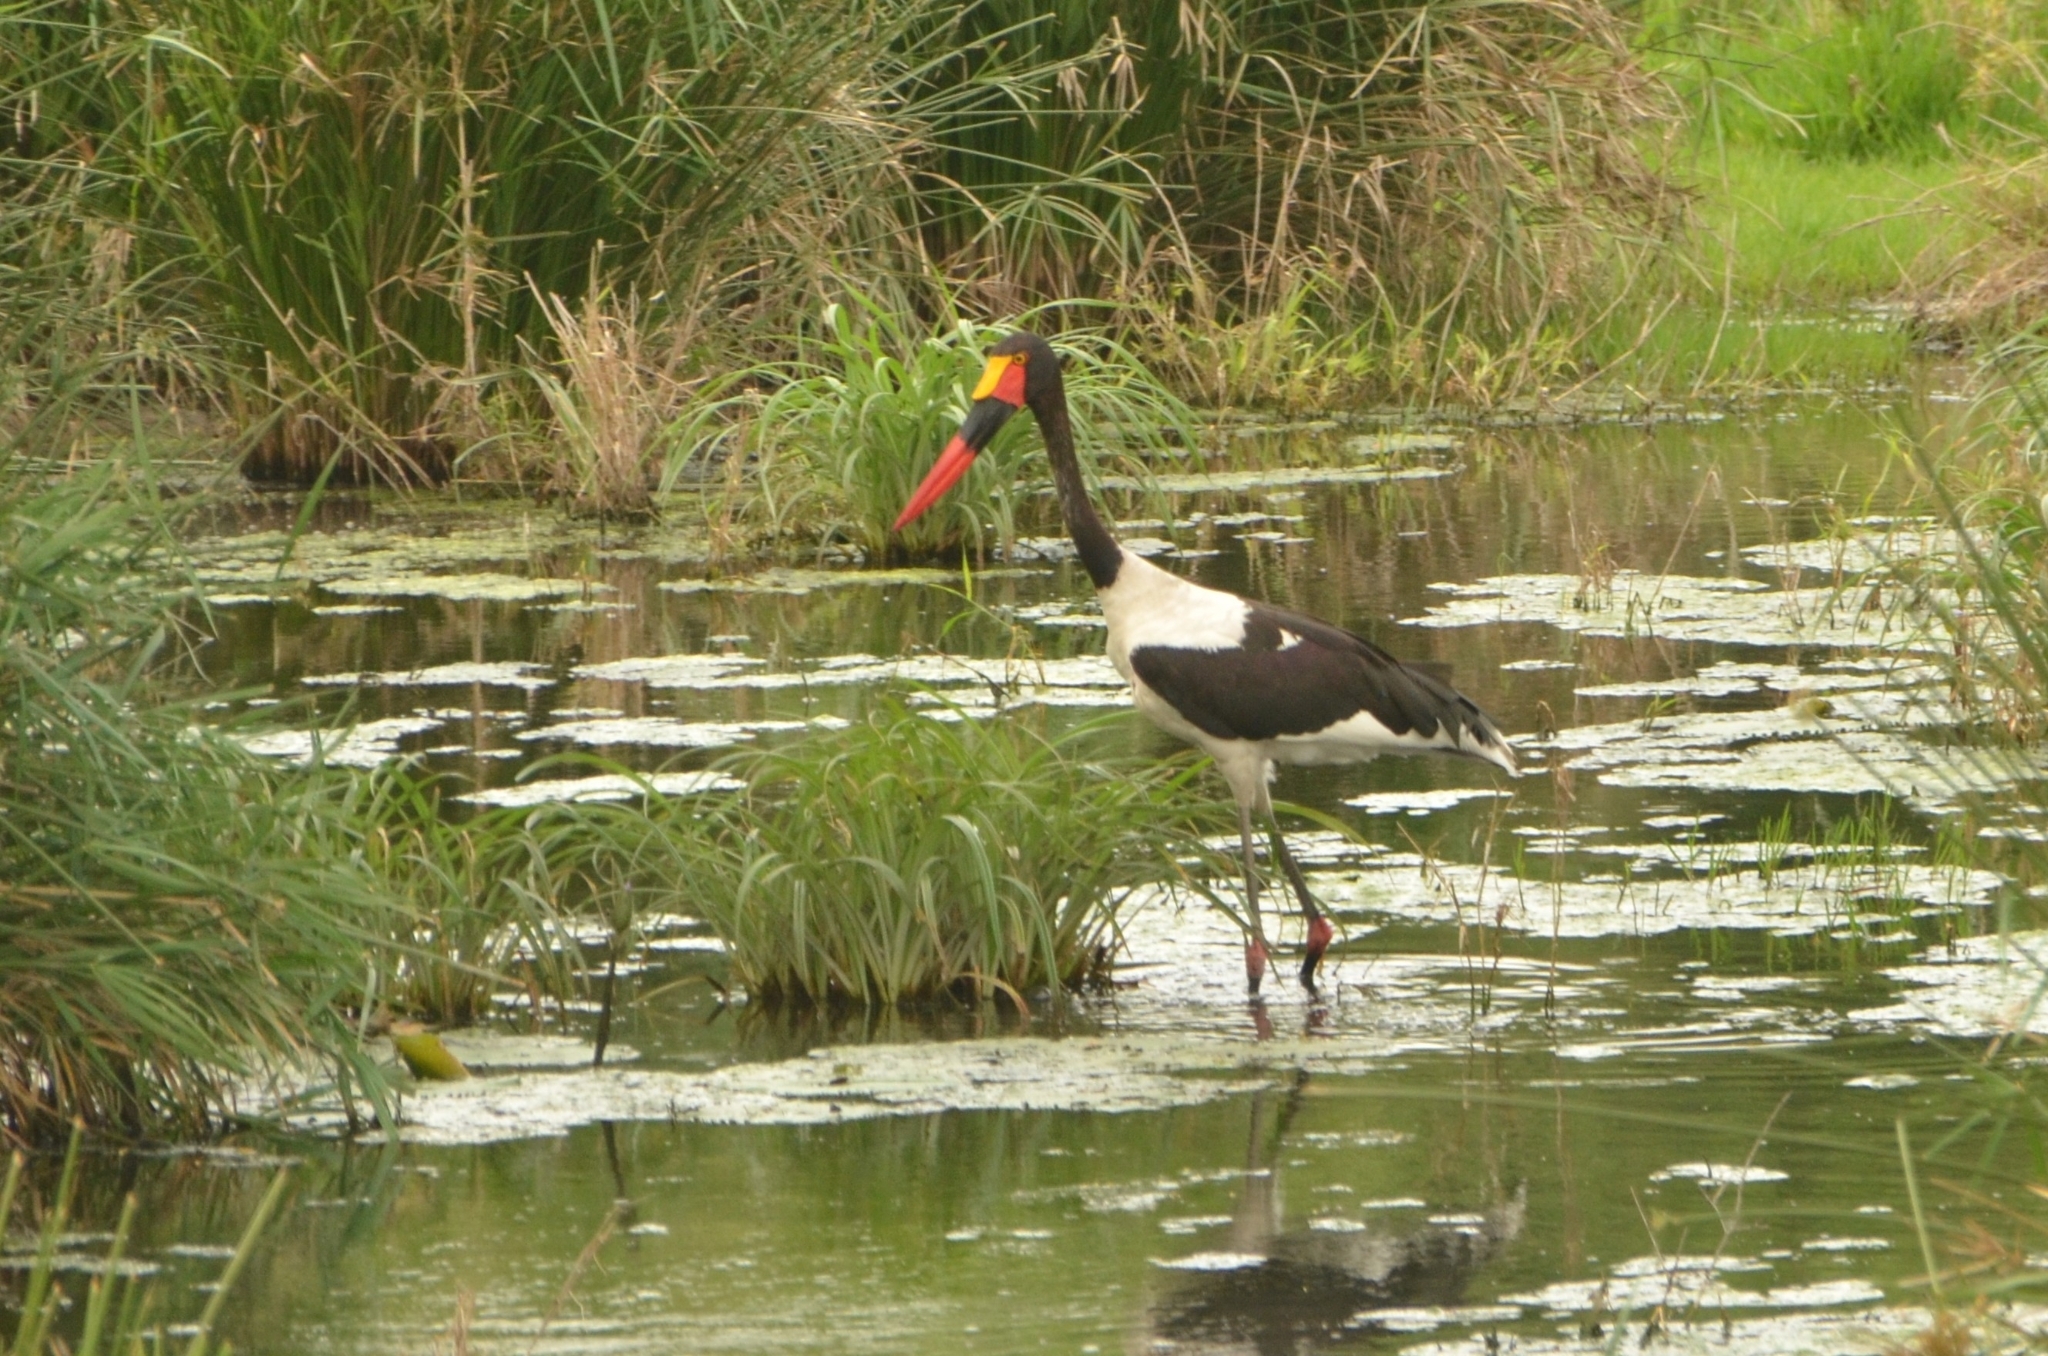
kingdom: Animalia
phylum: Chordata
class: Aves
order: Ciconiiformes
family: Ciconiidae
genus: Ephippiorhynchus
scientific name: Ephippiorhynchus senegalensis
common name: Saddle-billed stork
